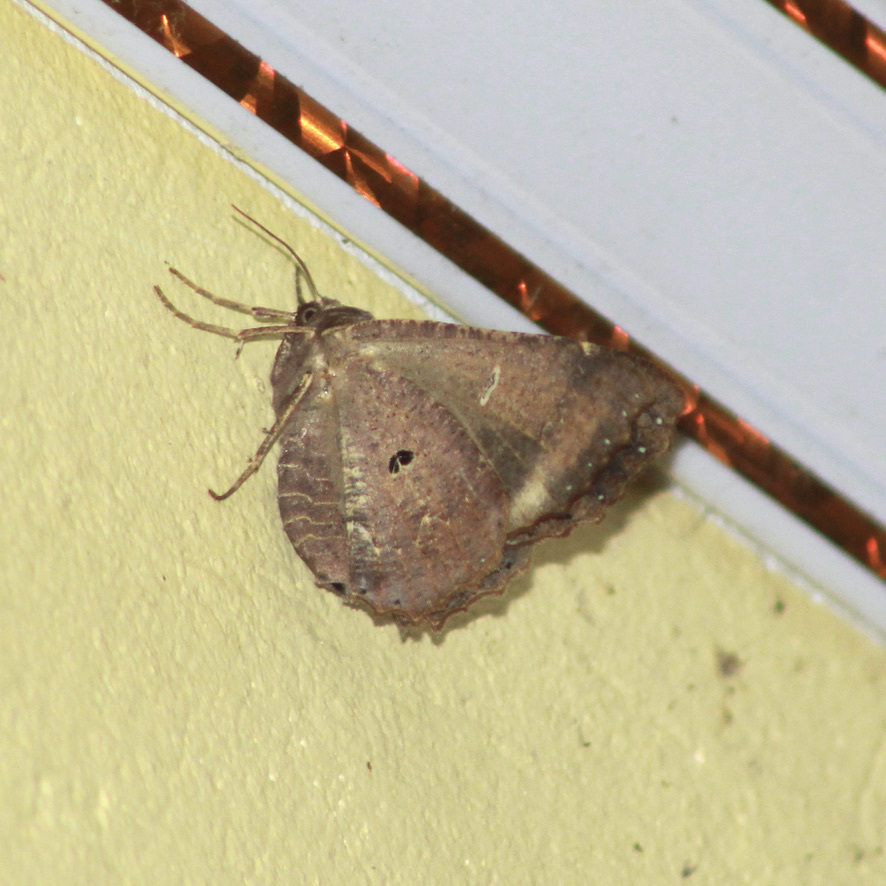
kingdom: Animalia
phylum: Arthropoda
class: Insecta
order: Lepidoptera
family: Geometridae
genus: Pero
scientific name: Pero dularia
